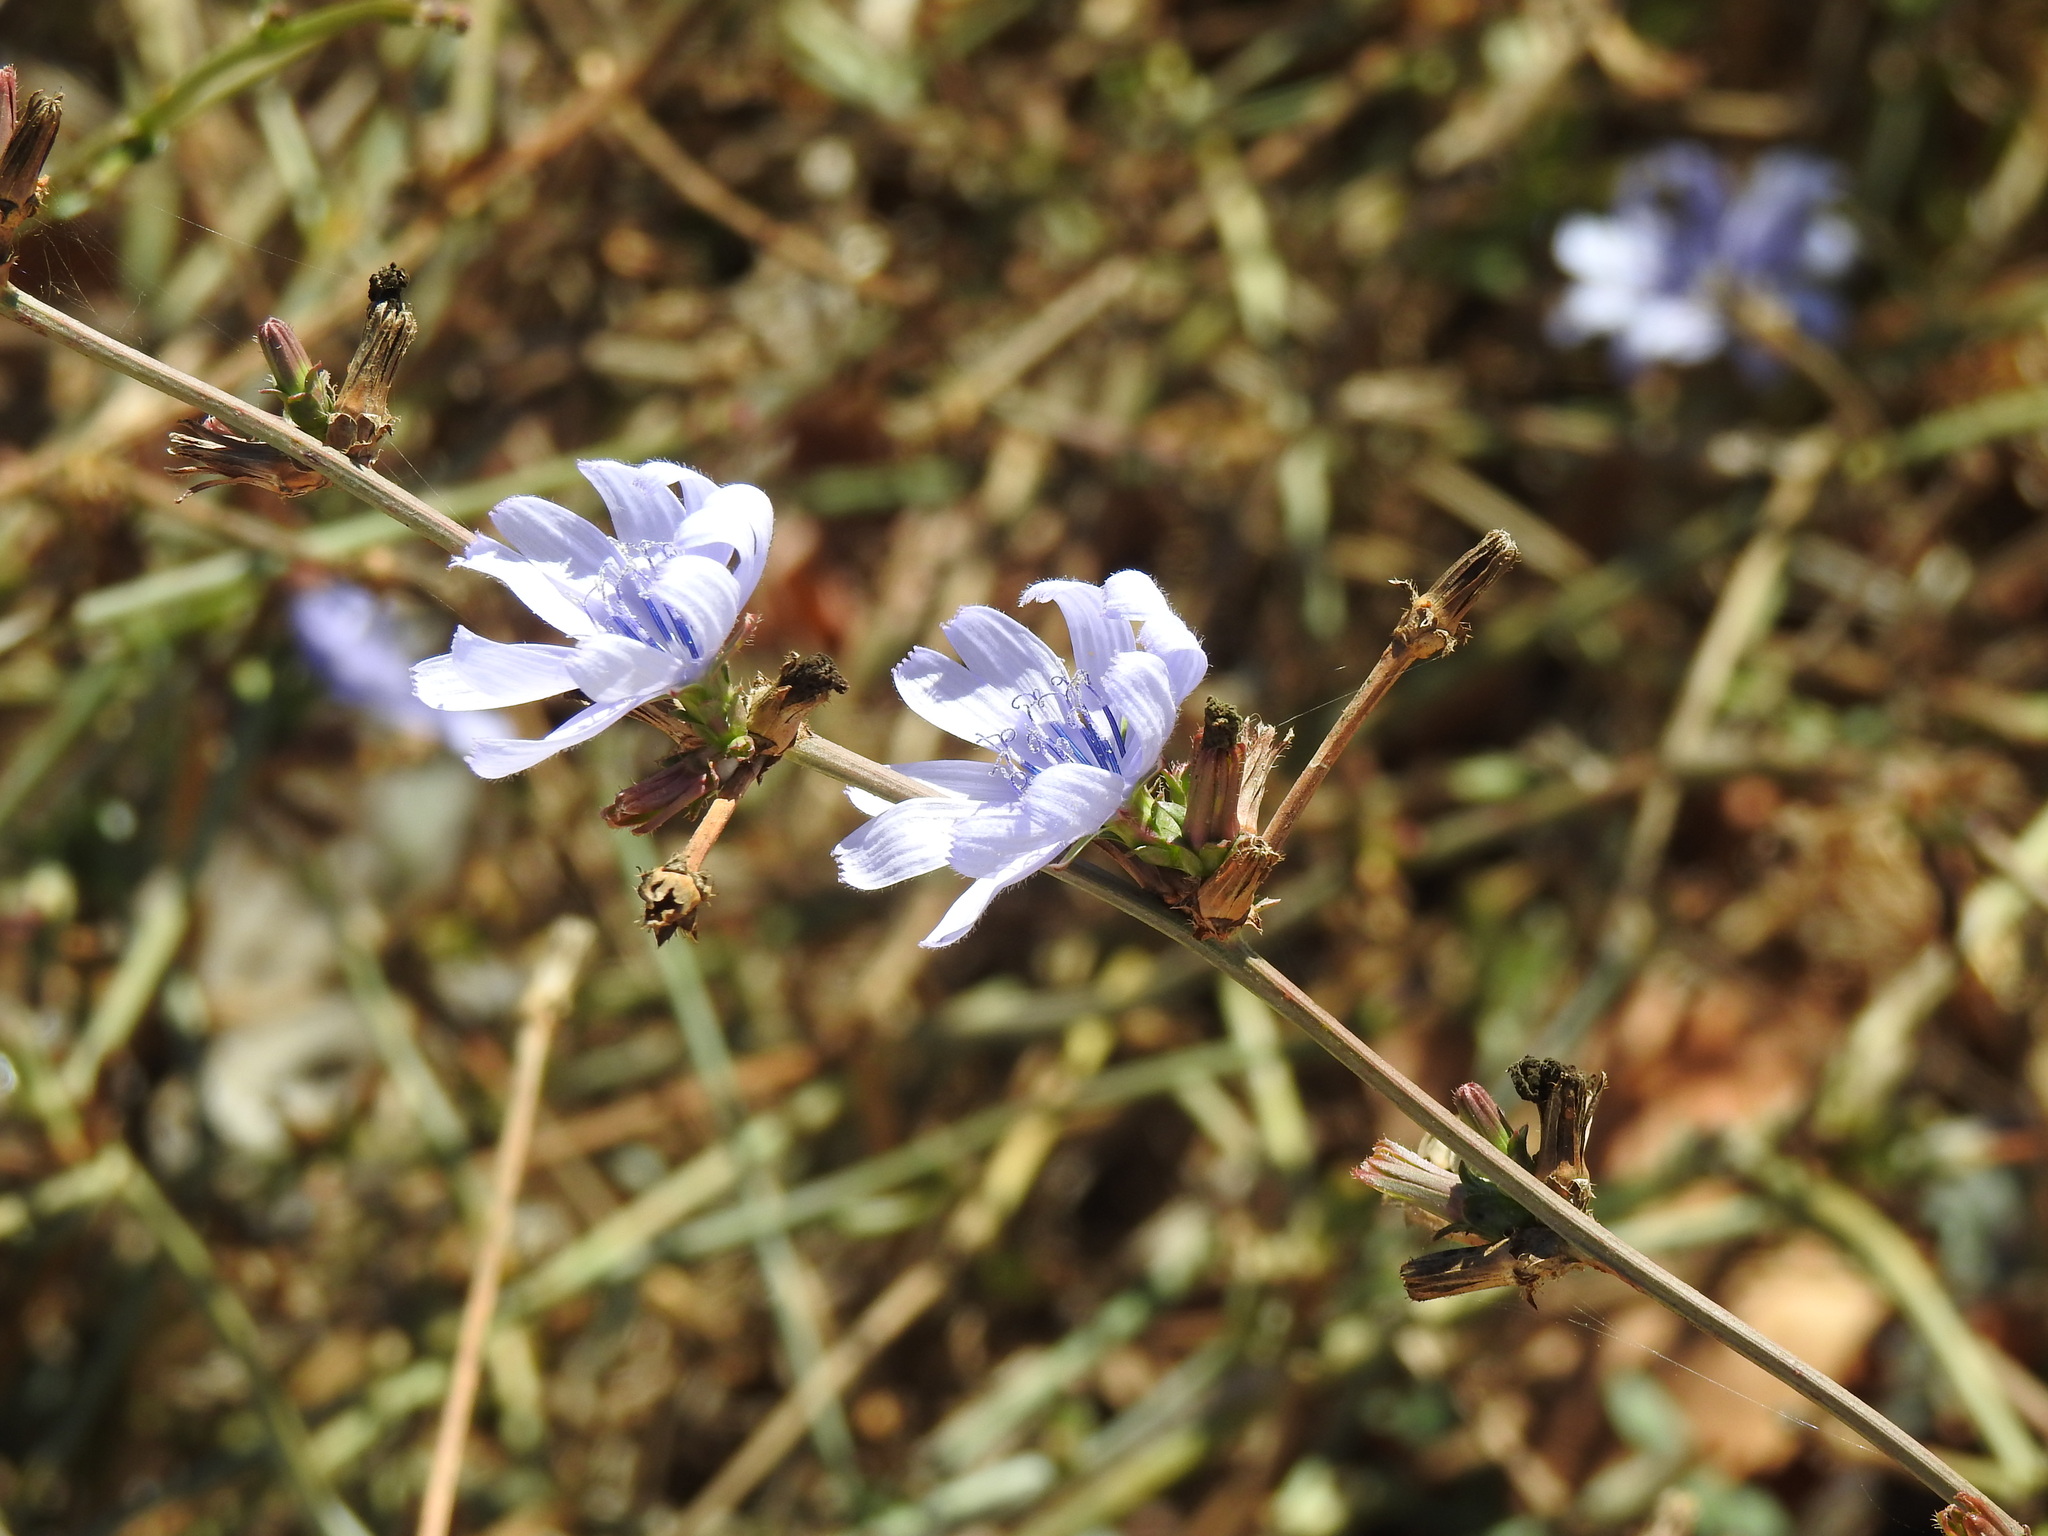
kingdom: Plantae
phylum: Tracheophyta
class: Magnoliopsida
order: Asterales
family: Asteraceae
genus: Cichorium
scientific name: Cichorium intybus
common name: Chicory
